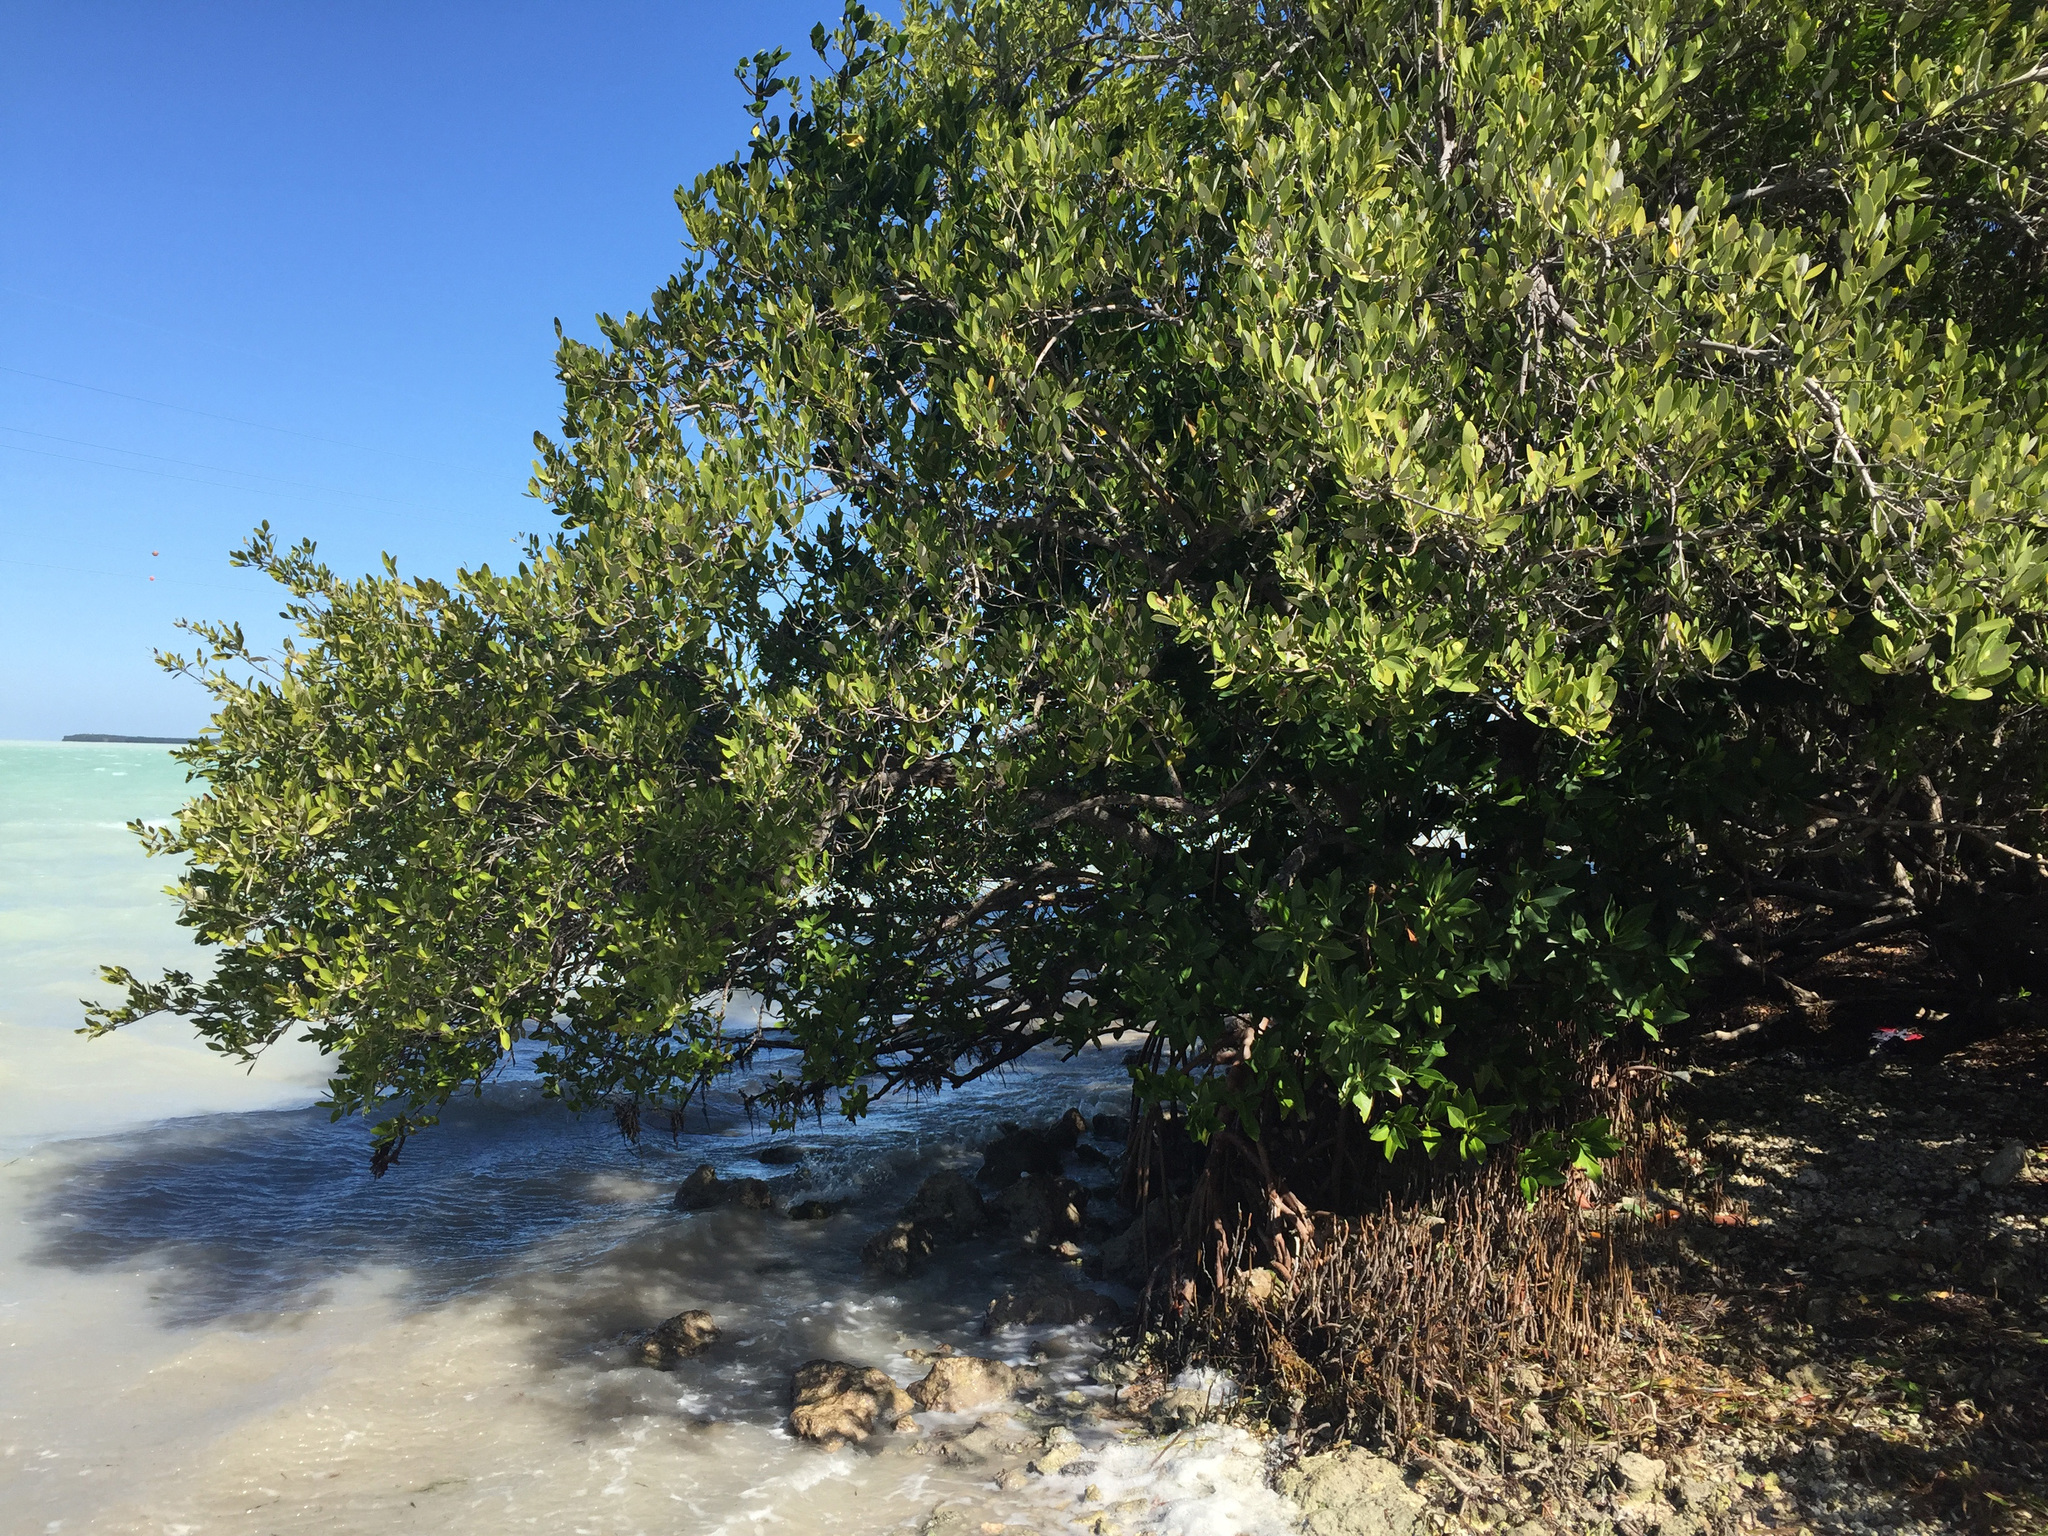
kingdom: Plantae
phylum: Tracheophyta
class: Magnoliopsida
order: Lamiales
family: Acanthaceae
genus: Avicennia
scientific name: Avicennia germinans
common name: Black mangrove
